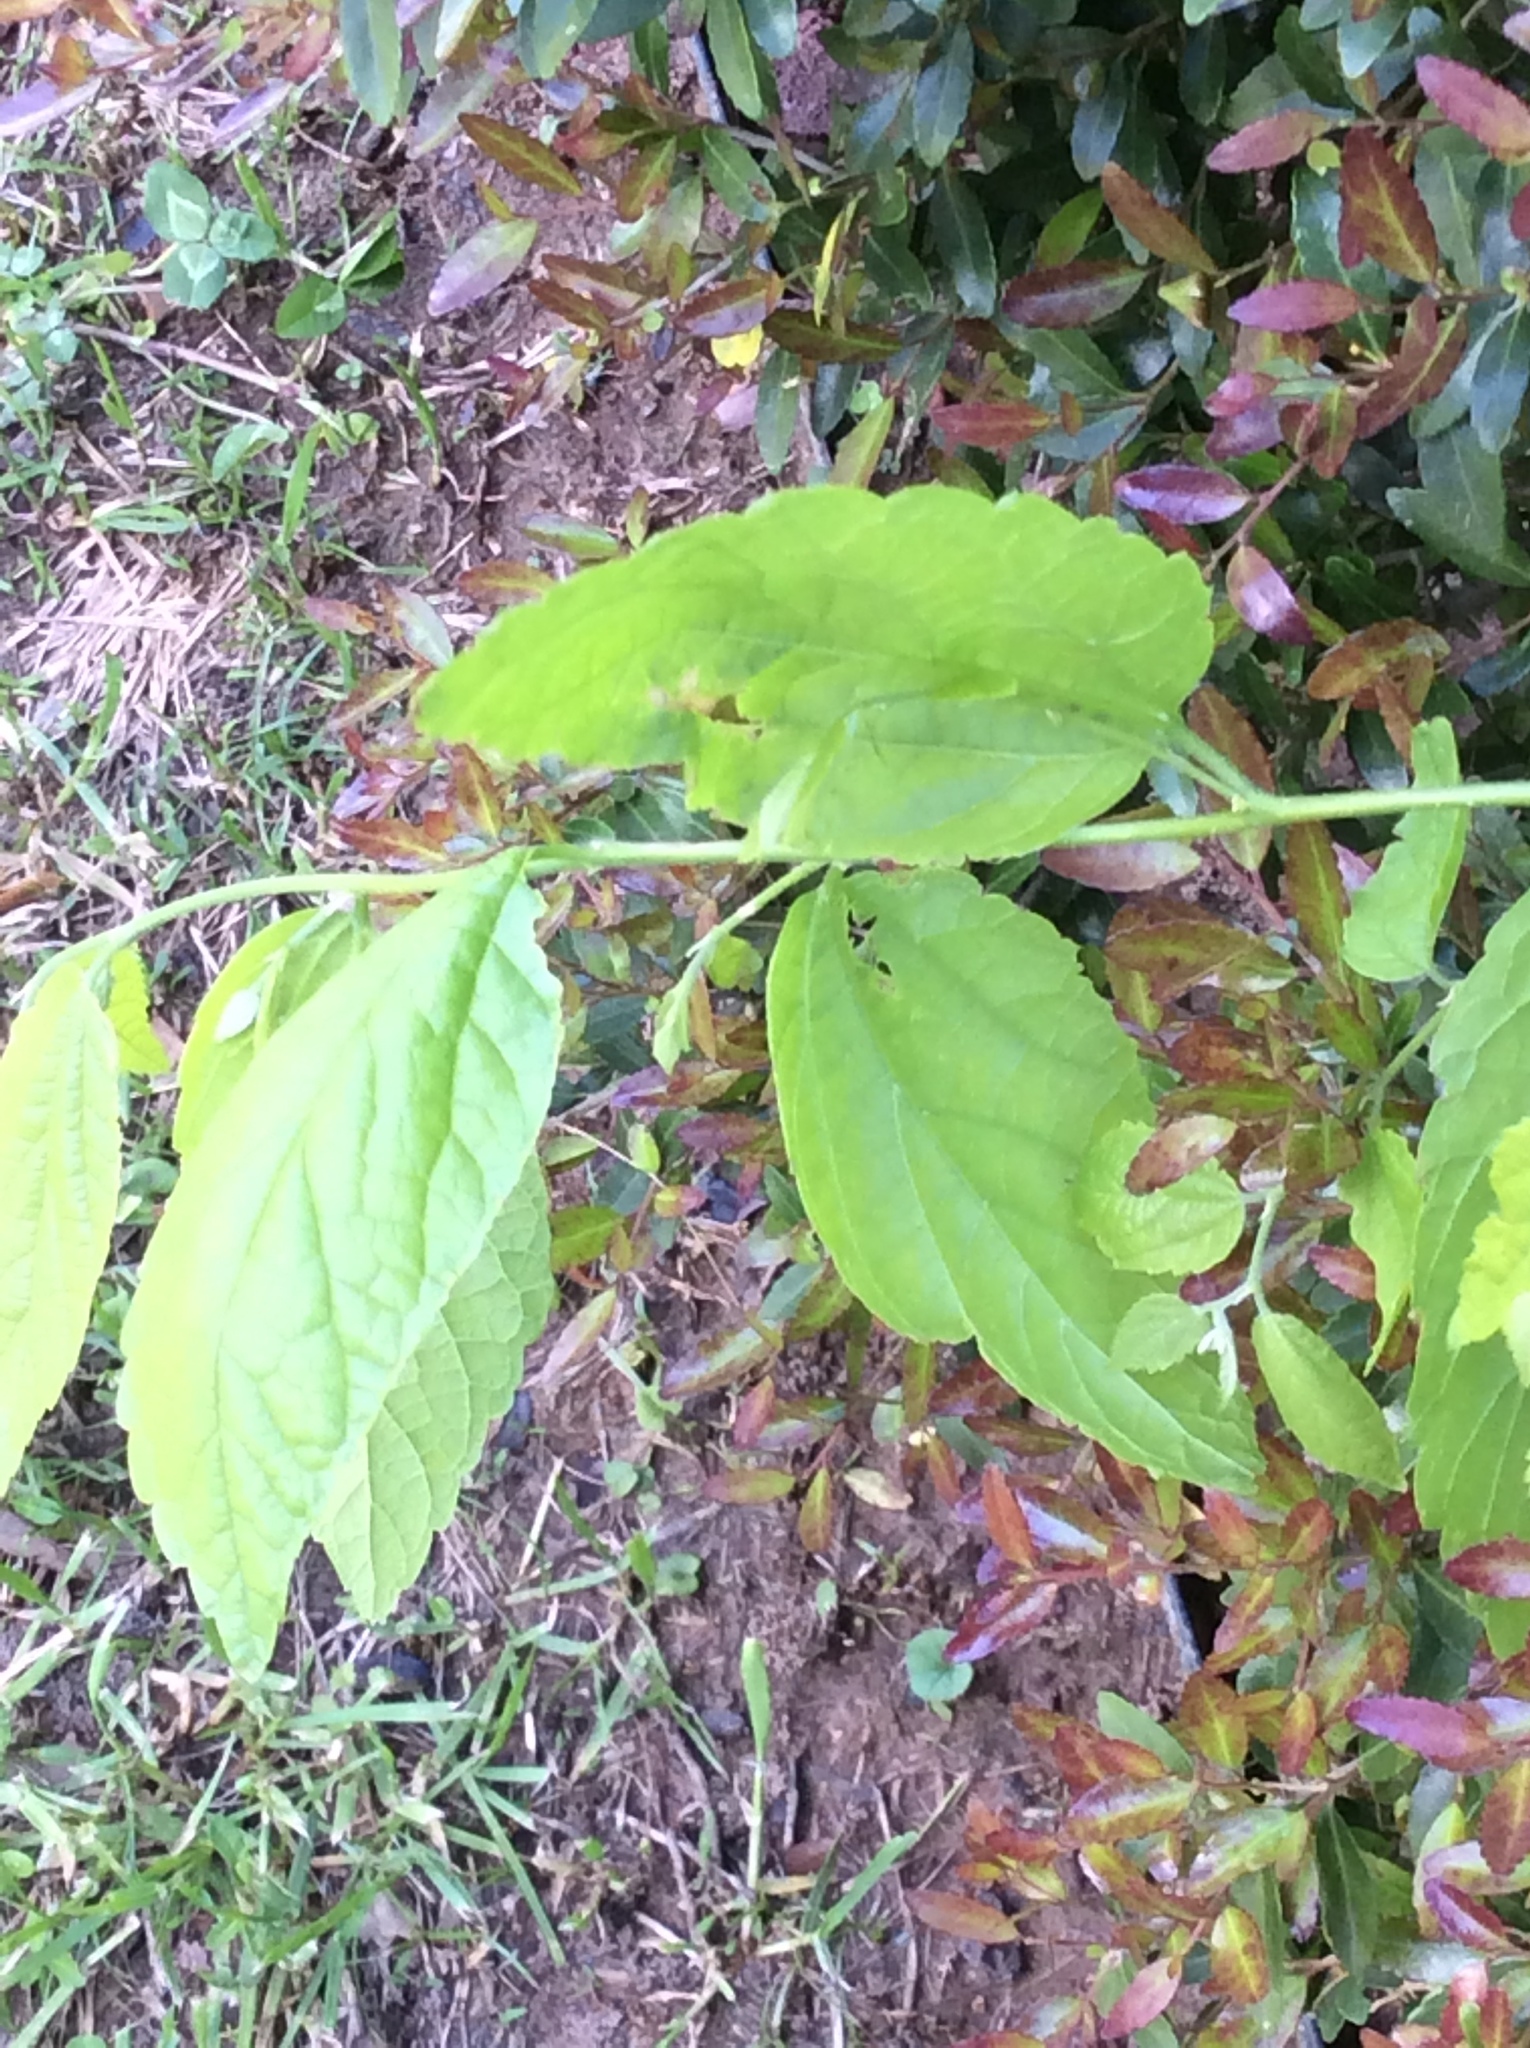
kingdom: Plantae
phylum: Tracheophyta
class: Magnoliopsida
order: Rosales
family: Cannabaceae
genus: Celtis
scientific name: Celtis laevigata
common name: Sugarberry
